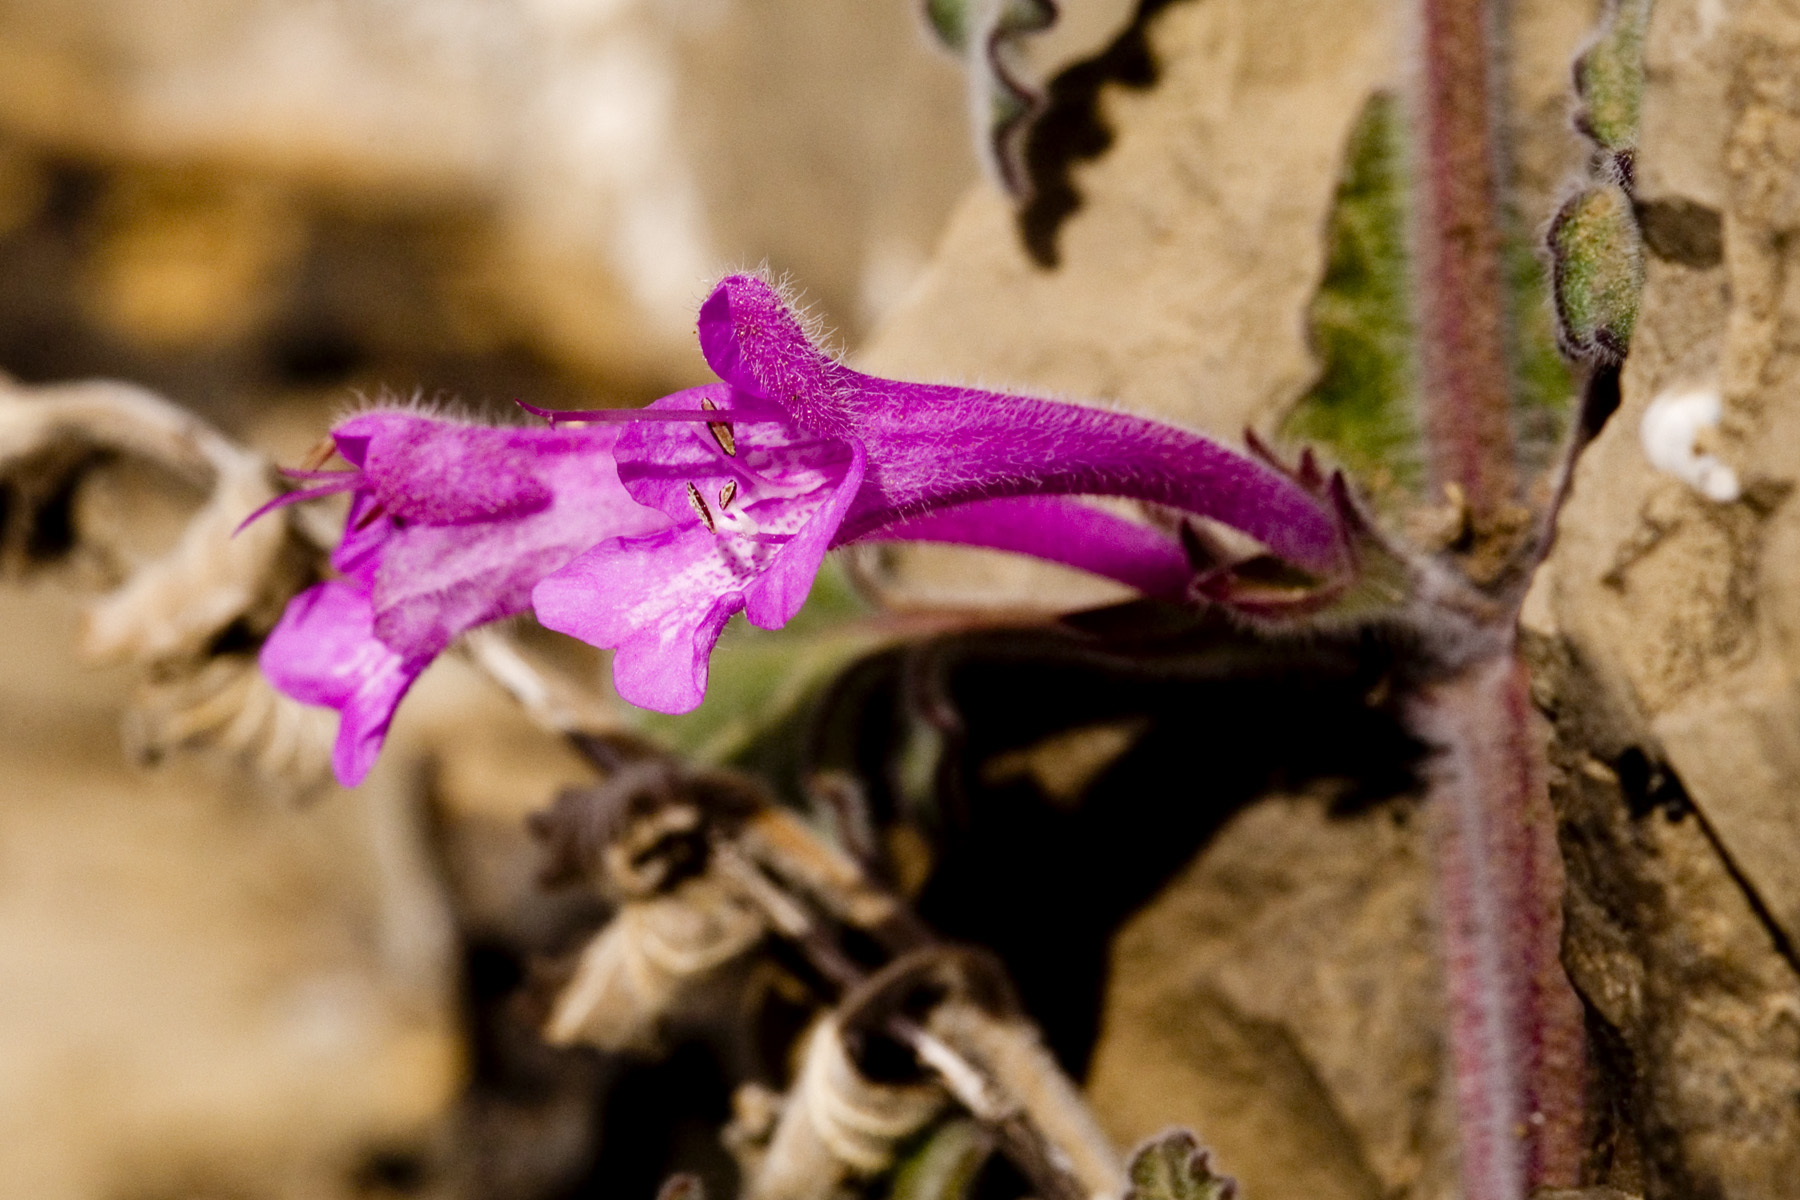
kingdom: Plantae
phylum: Tracheophyta
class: Magnoliopsida
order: Lamiales
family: Lamiaceae
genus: Salvia
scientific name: Salvia summa
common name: Great sage
